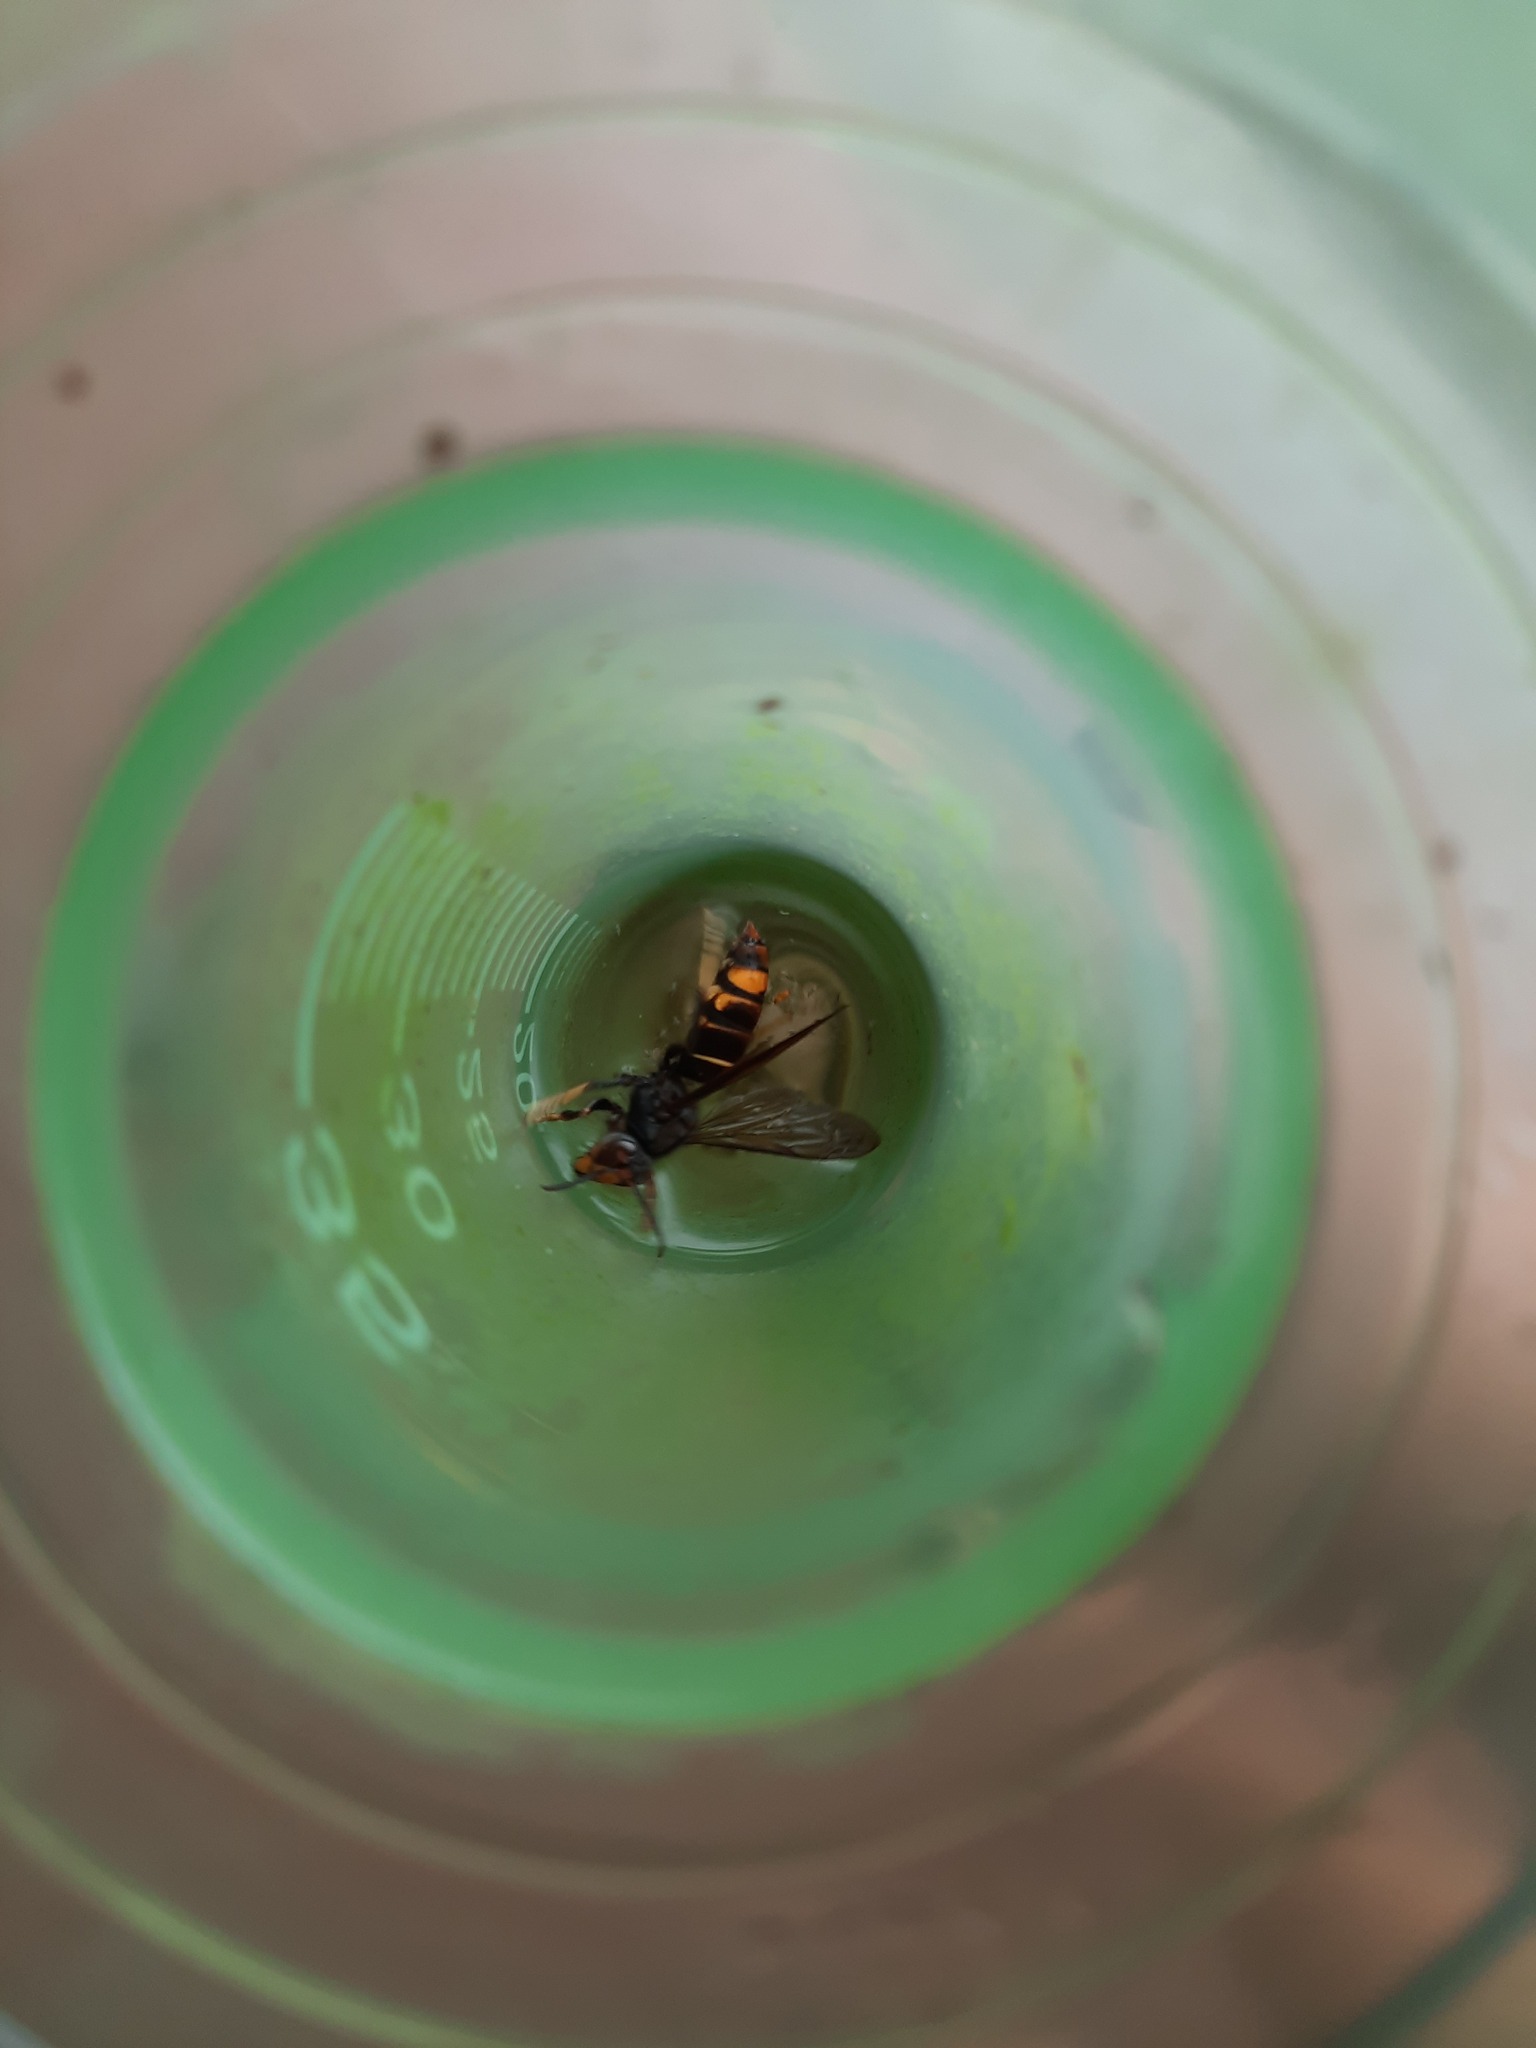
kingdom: Animalia
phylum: Arthropoda
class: Insecta
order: Hymenoptera
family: Vespidae
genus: Vespa
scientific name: Vespa velutina
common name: Asian hornet
